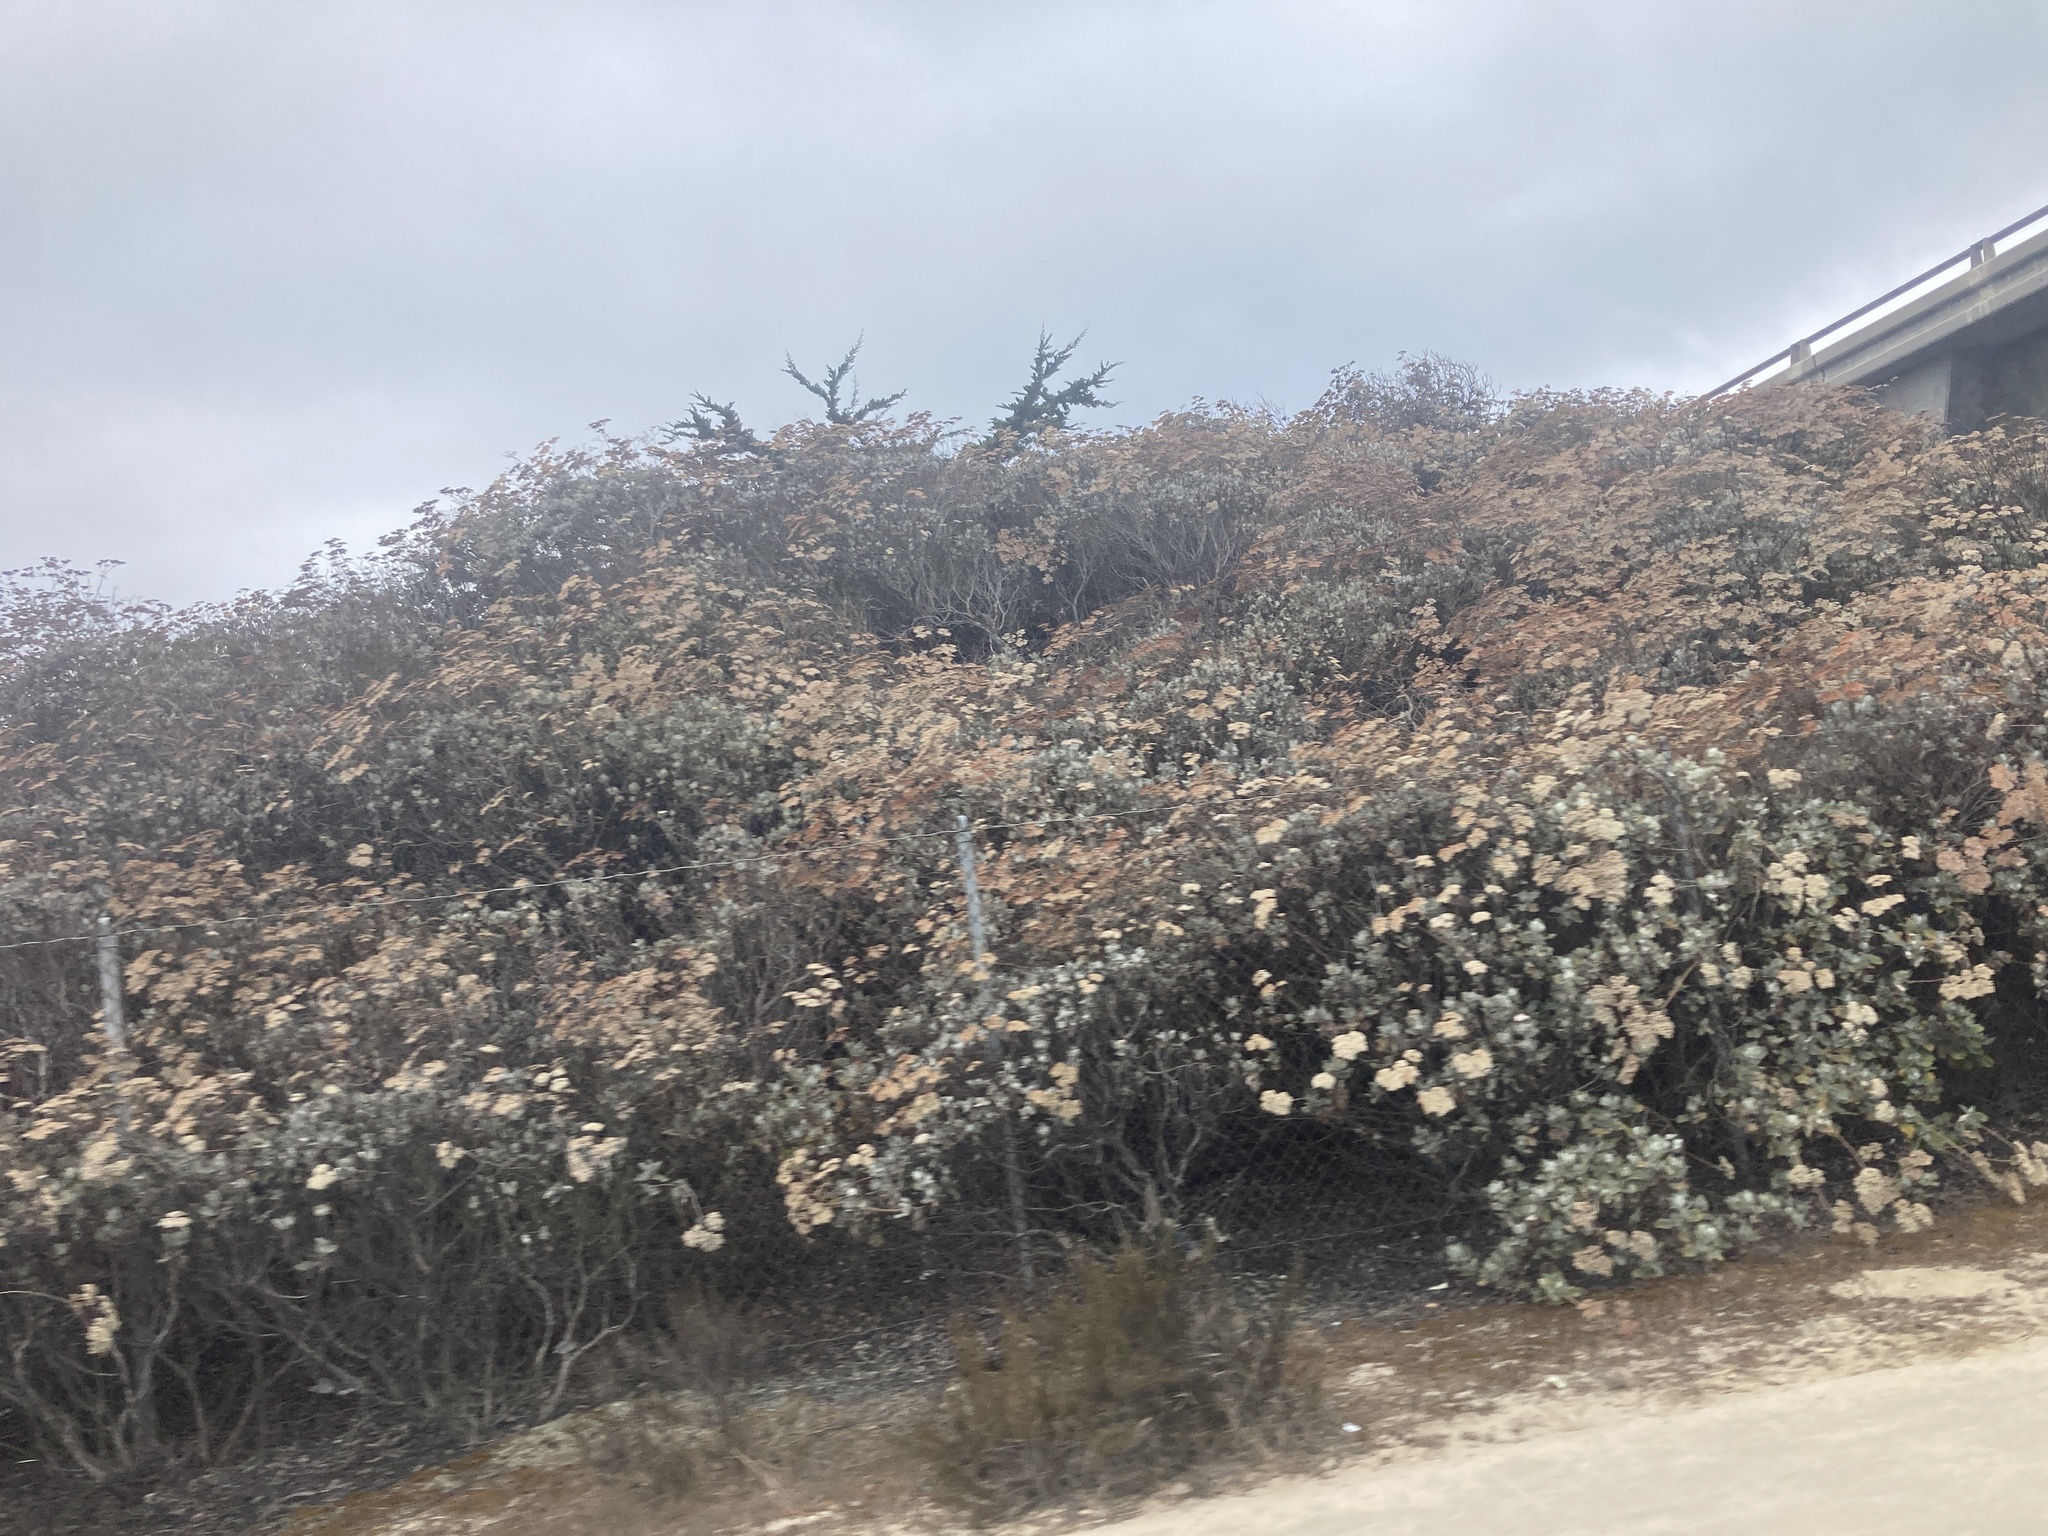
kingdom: Plantae
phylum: Tracheophyta
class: Magnoliopsida
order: Caryophyllales
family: Polygonaceae
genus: Eriogonum
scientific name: Eriogonum giganteum
